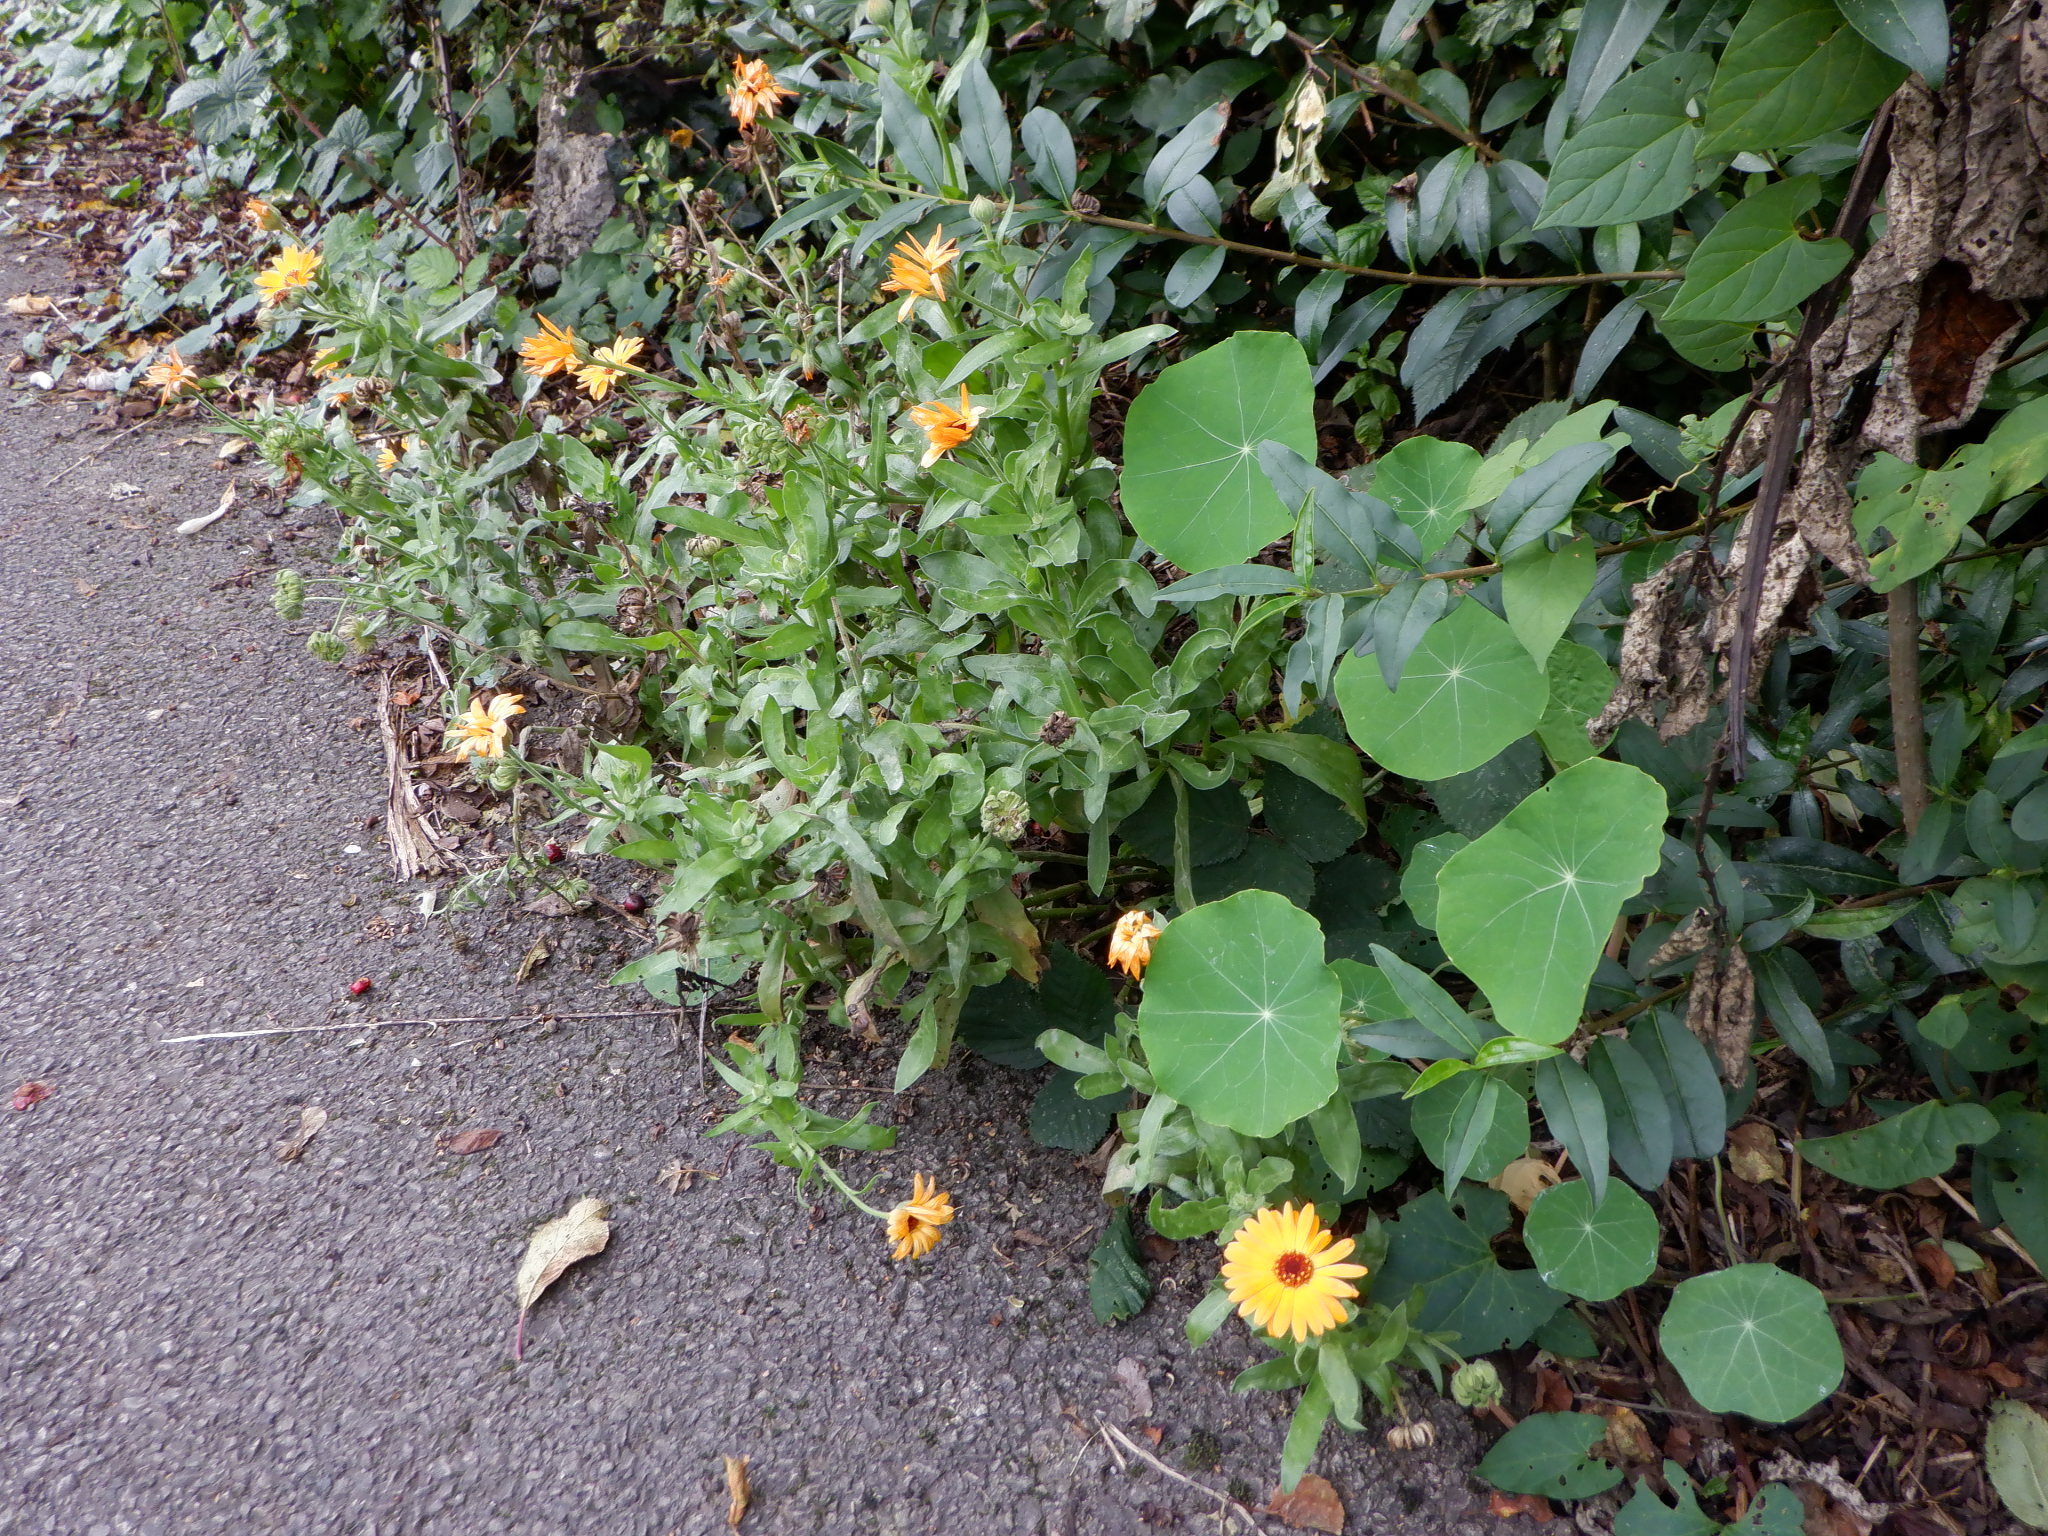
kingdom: Plantae
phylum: Tracheophyta
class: Magnoliopsida
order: Asterales
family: Asteraceae
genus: Calendula
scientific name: Calendula officinalis
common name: Pot marigold
